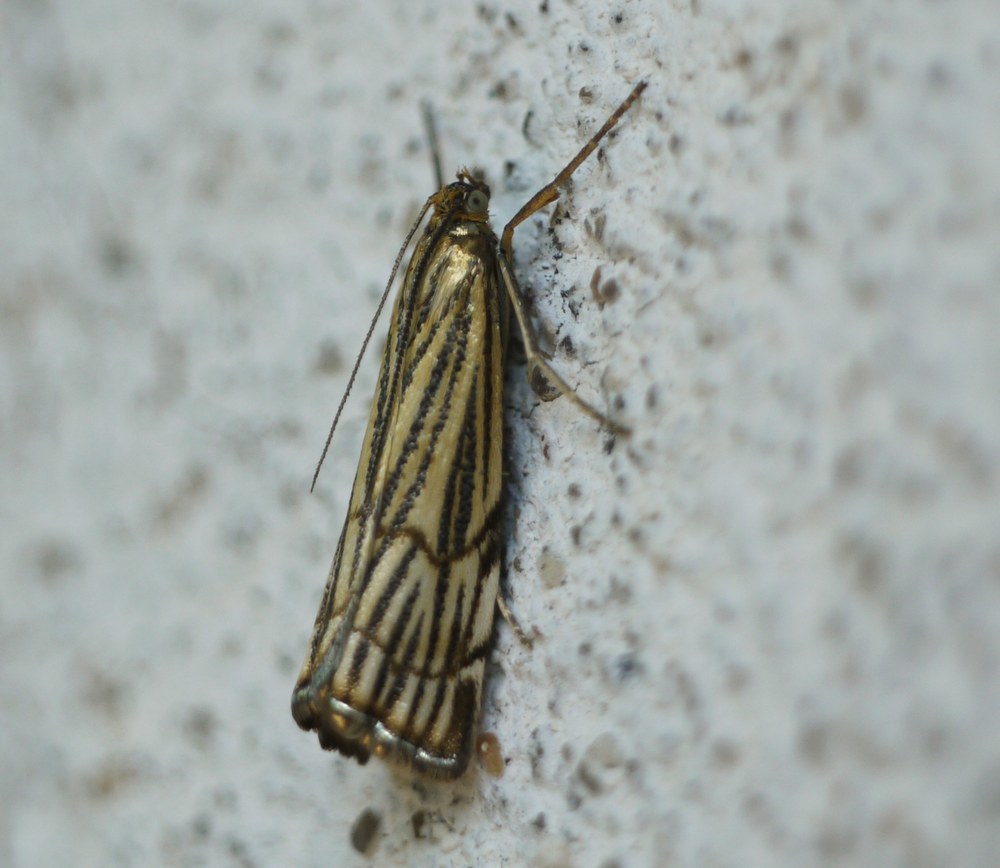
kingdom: Animalia
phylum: Arthropoda
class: Insecta
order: Lepidoptera
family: Crambidae
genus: Chrysocrambus
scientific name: Chrysocrambus Chrysocramboides craterellus
